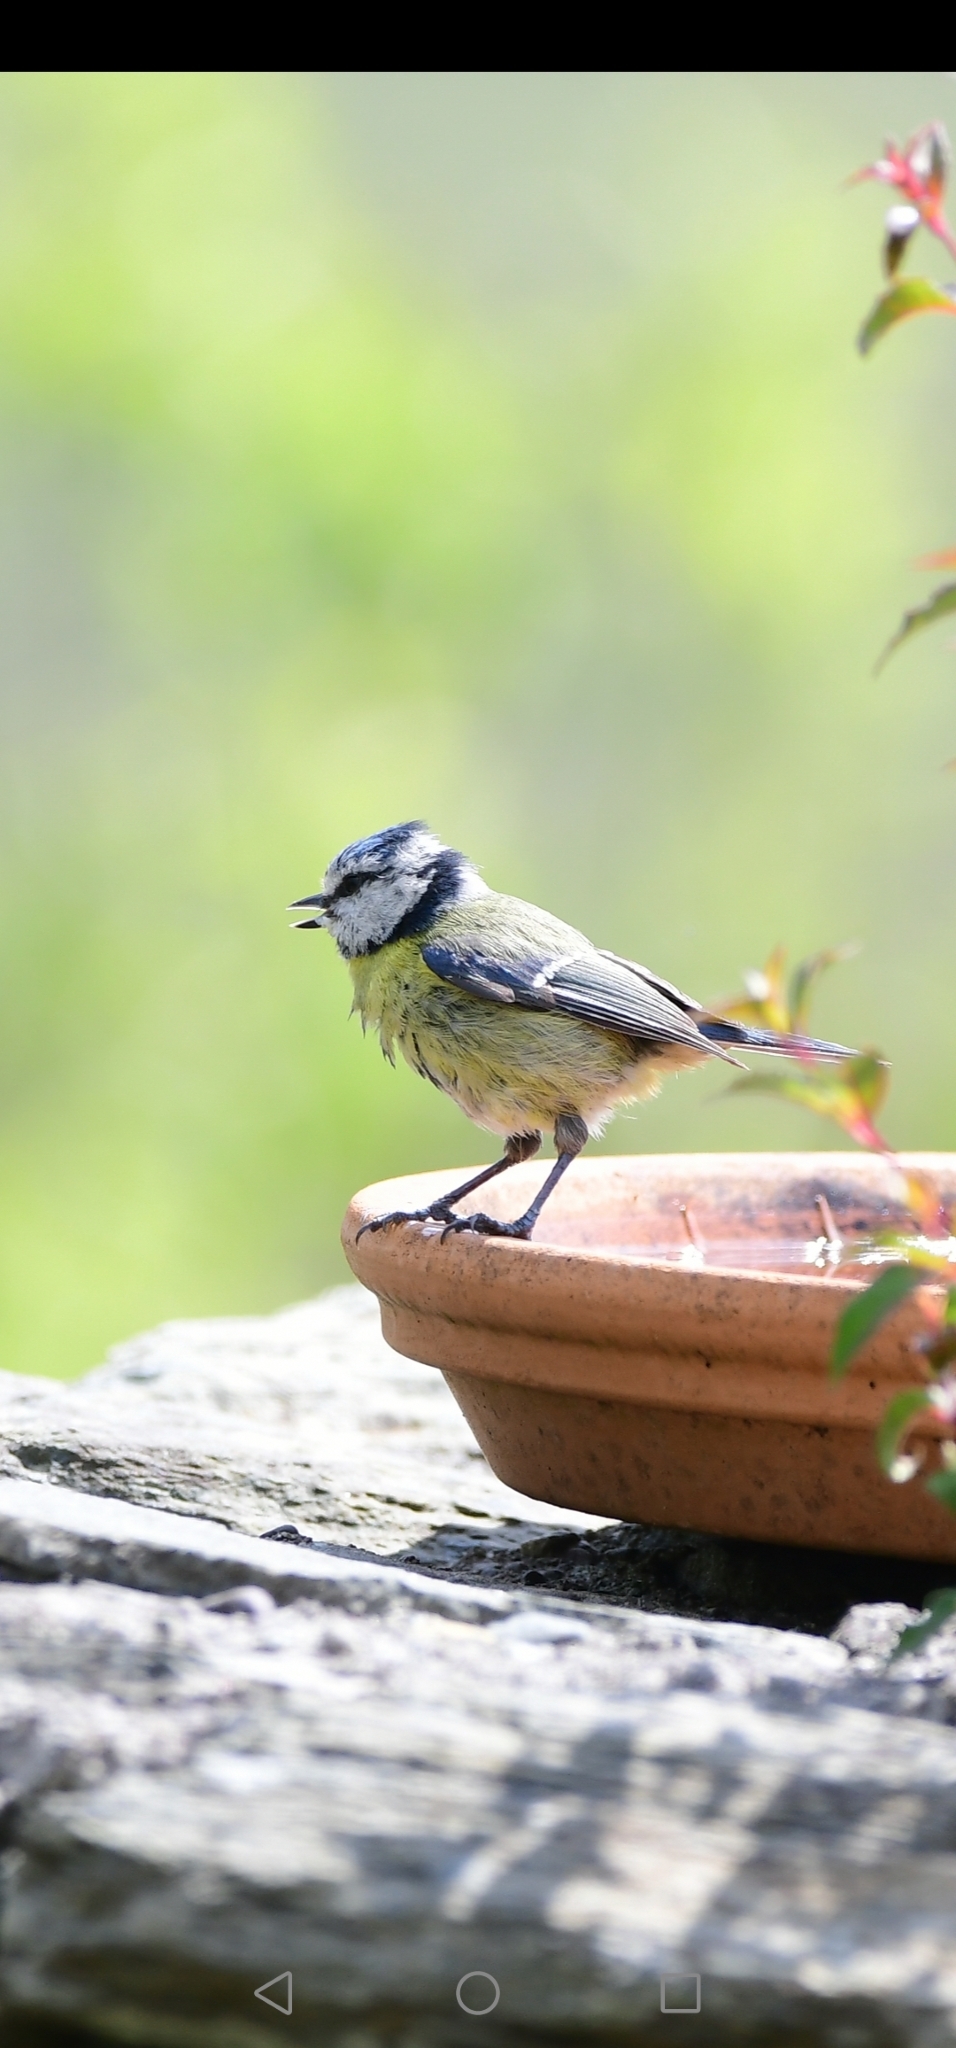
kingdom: Animalia
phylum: Chordata
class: Aves
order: Passeriformes
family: Paridae
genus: Cyanistes
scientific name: Cyanistes caeruleus
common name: Eurasian blue tit
